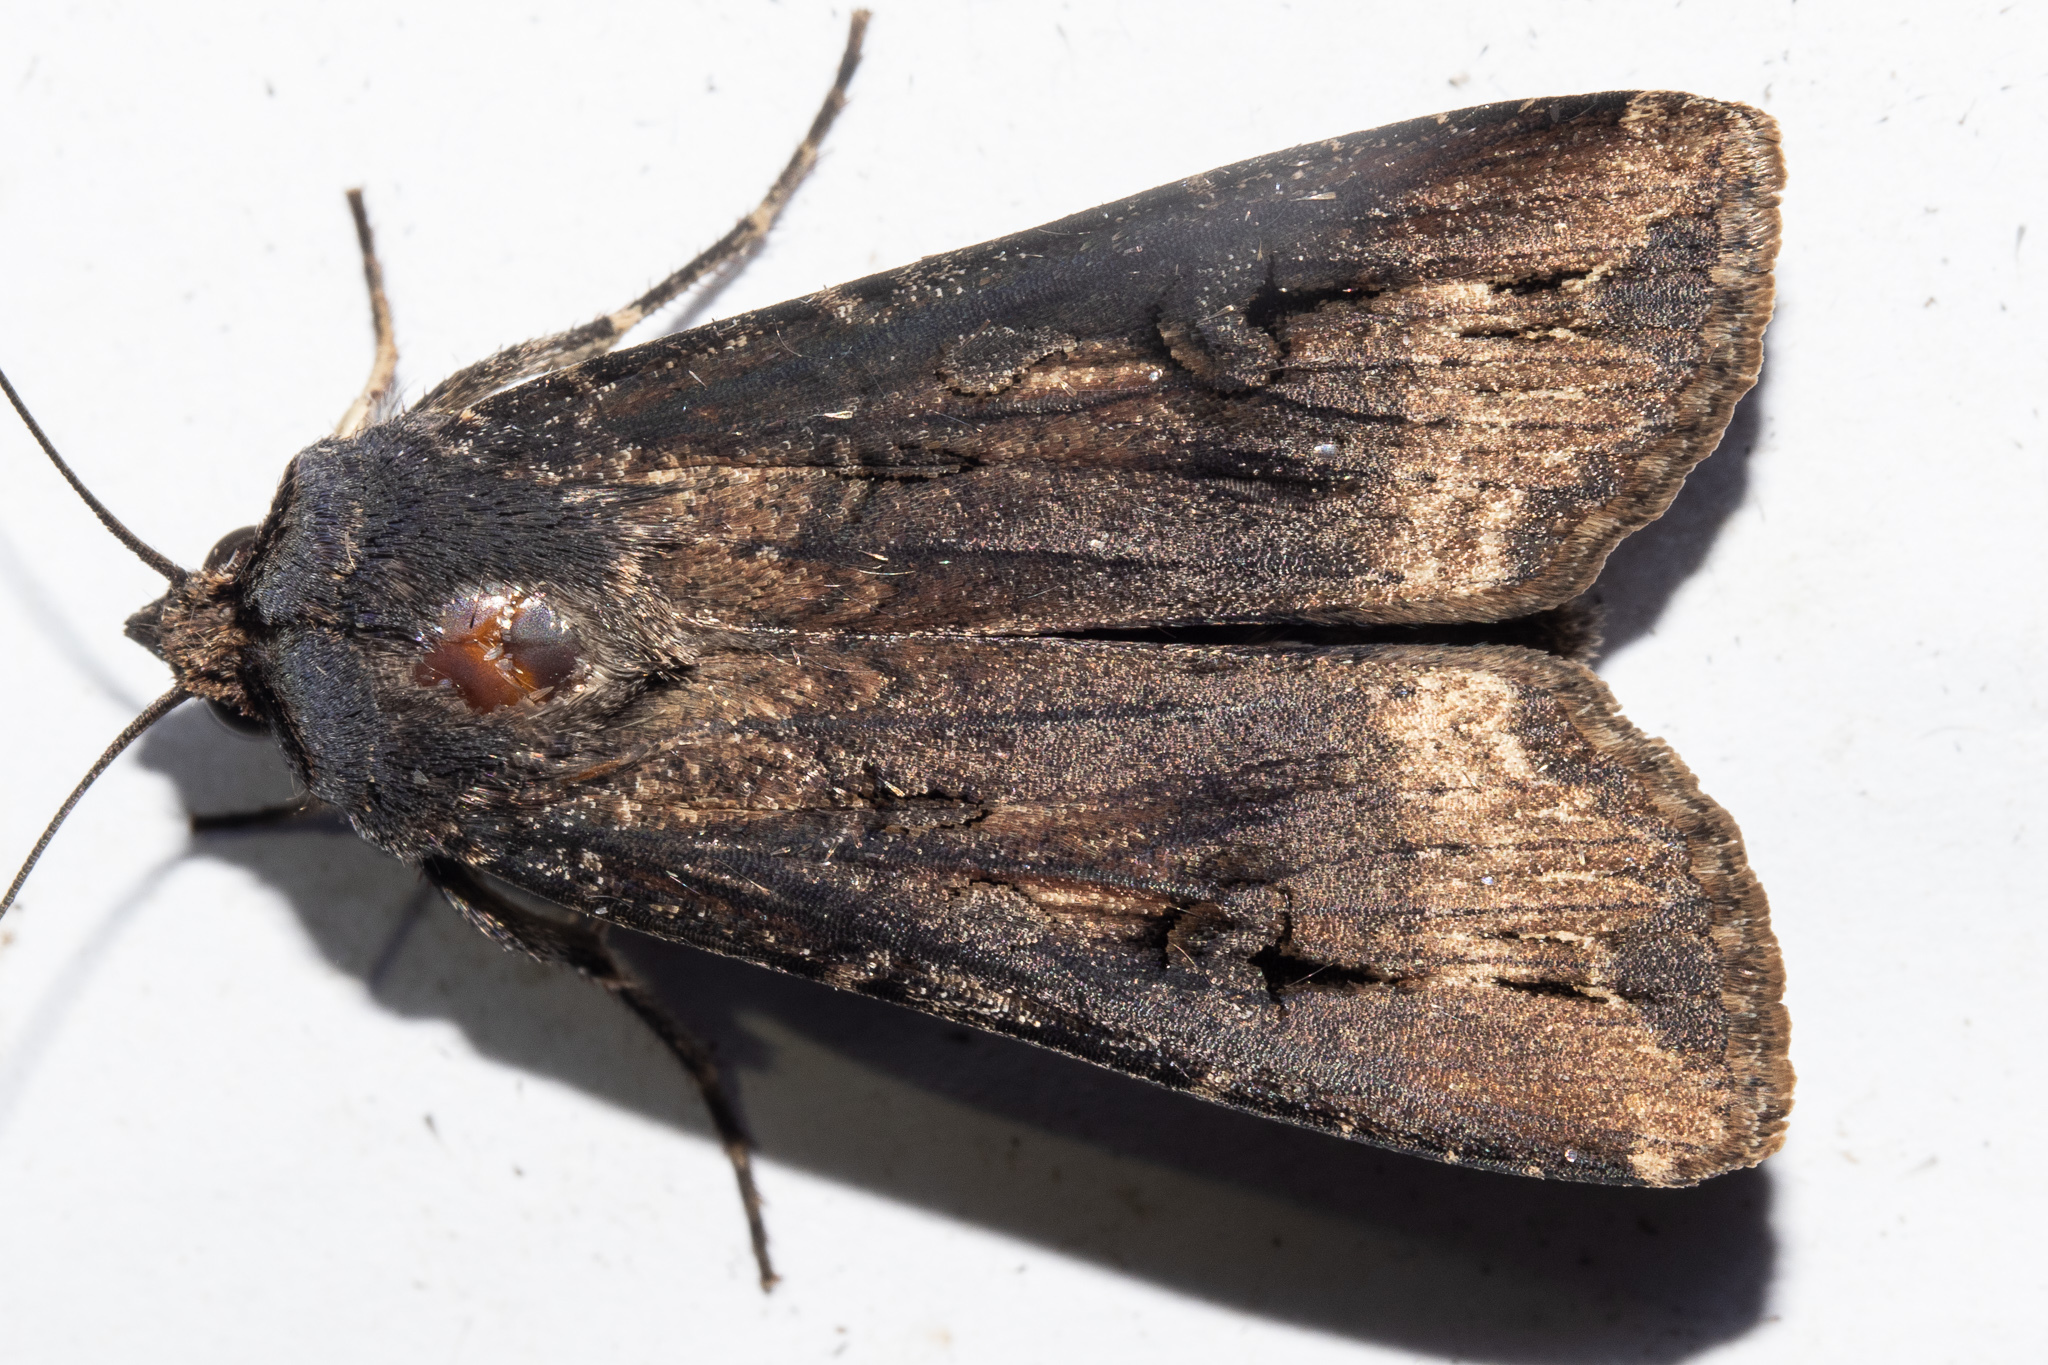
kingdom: Animalia
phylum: Arthropoda
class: Insecta
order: Lepidoptera
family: Noctuidae
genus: Agrotis
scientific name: Agrotis ipsilon
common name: Dark sword-grass
